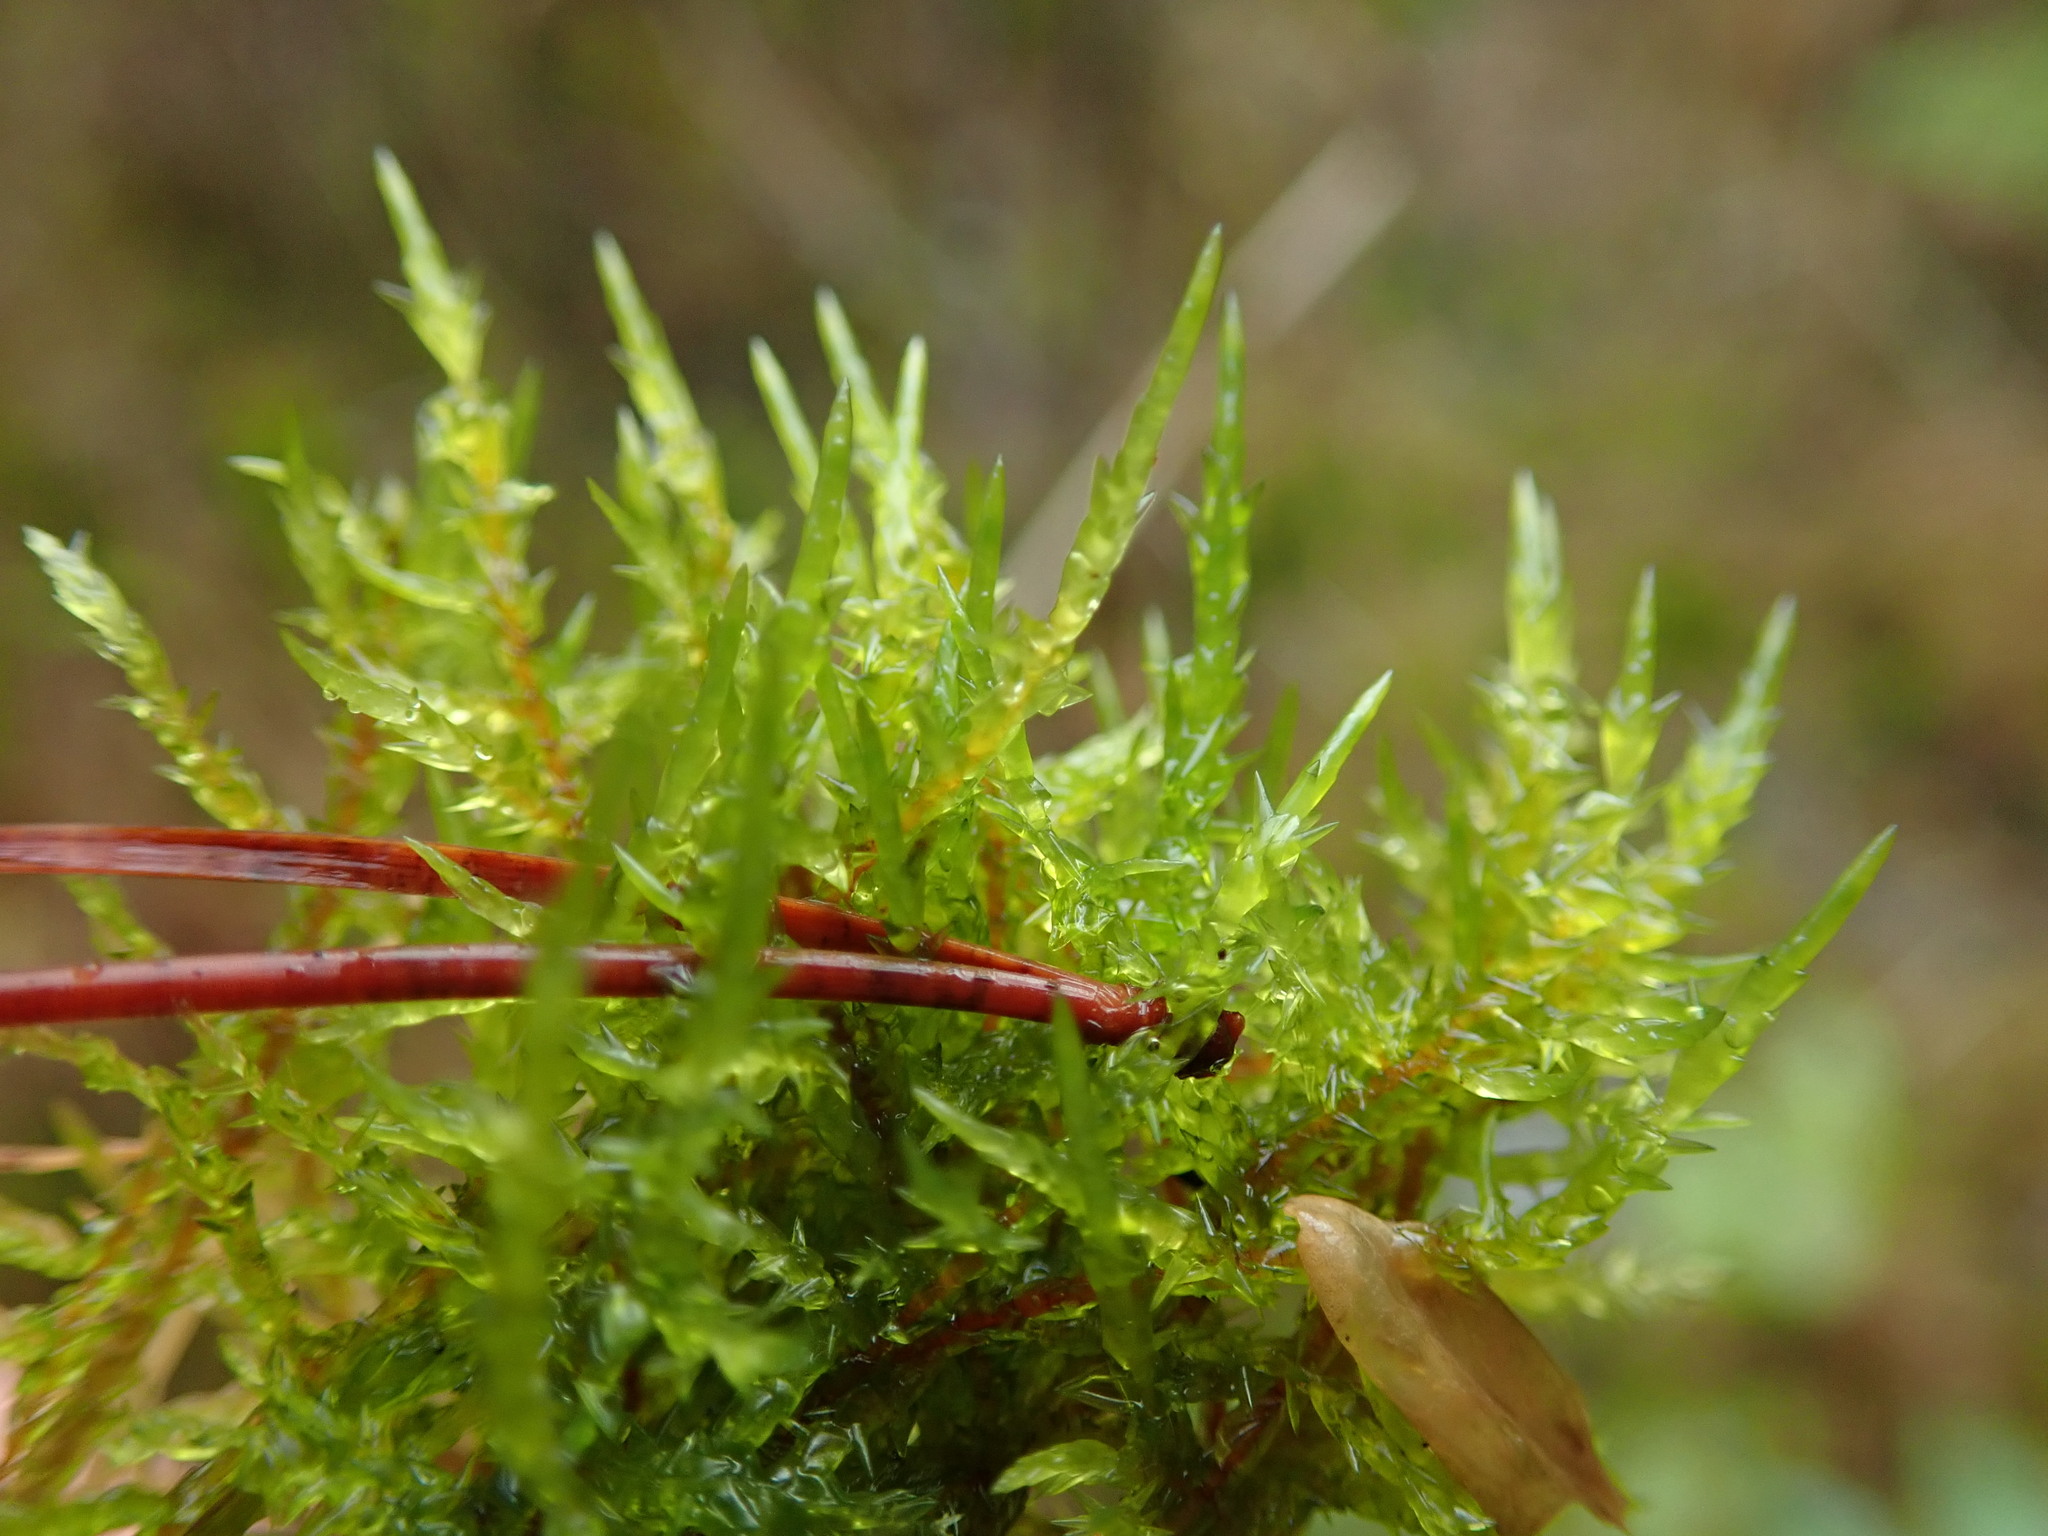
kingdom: Plantae
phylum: Bryophyta
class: Bryopsida
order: Hypnales
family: Pylaisiaceae
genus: Calliergonella
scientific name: Calliergonella cuspidata
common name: Common large wetland moss
